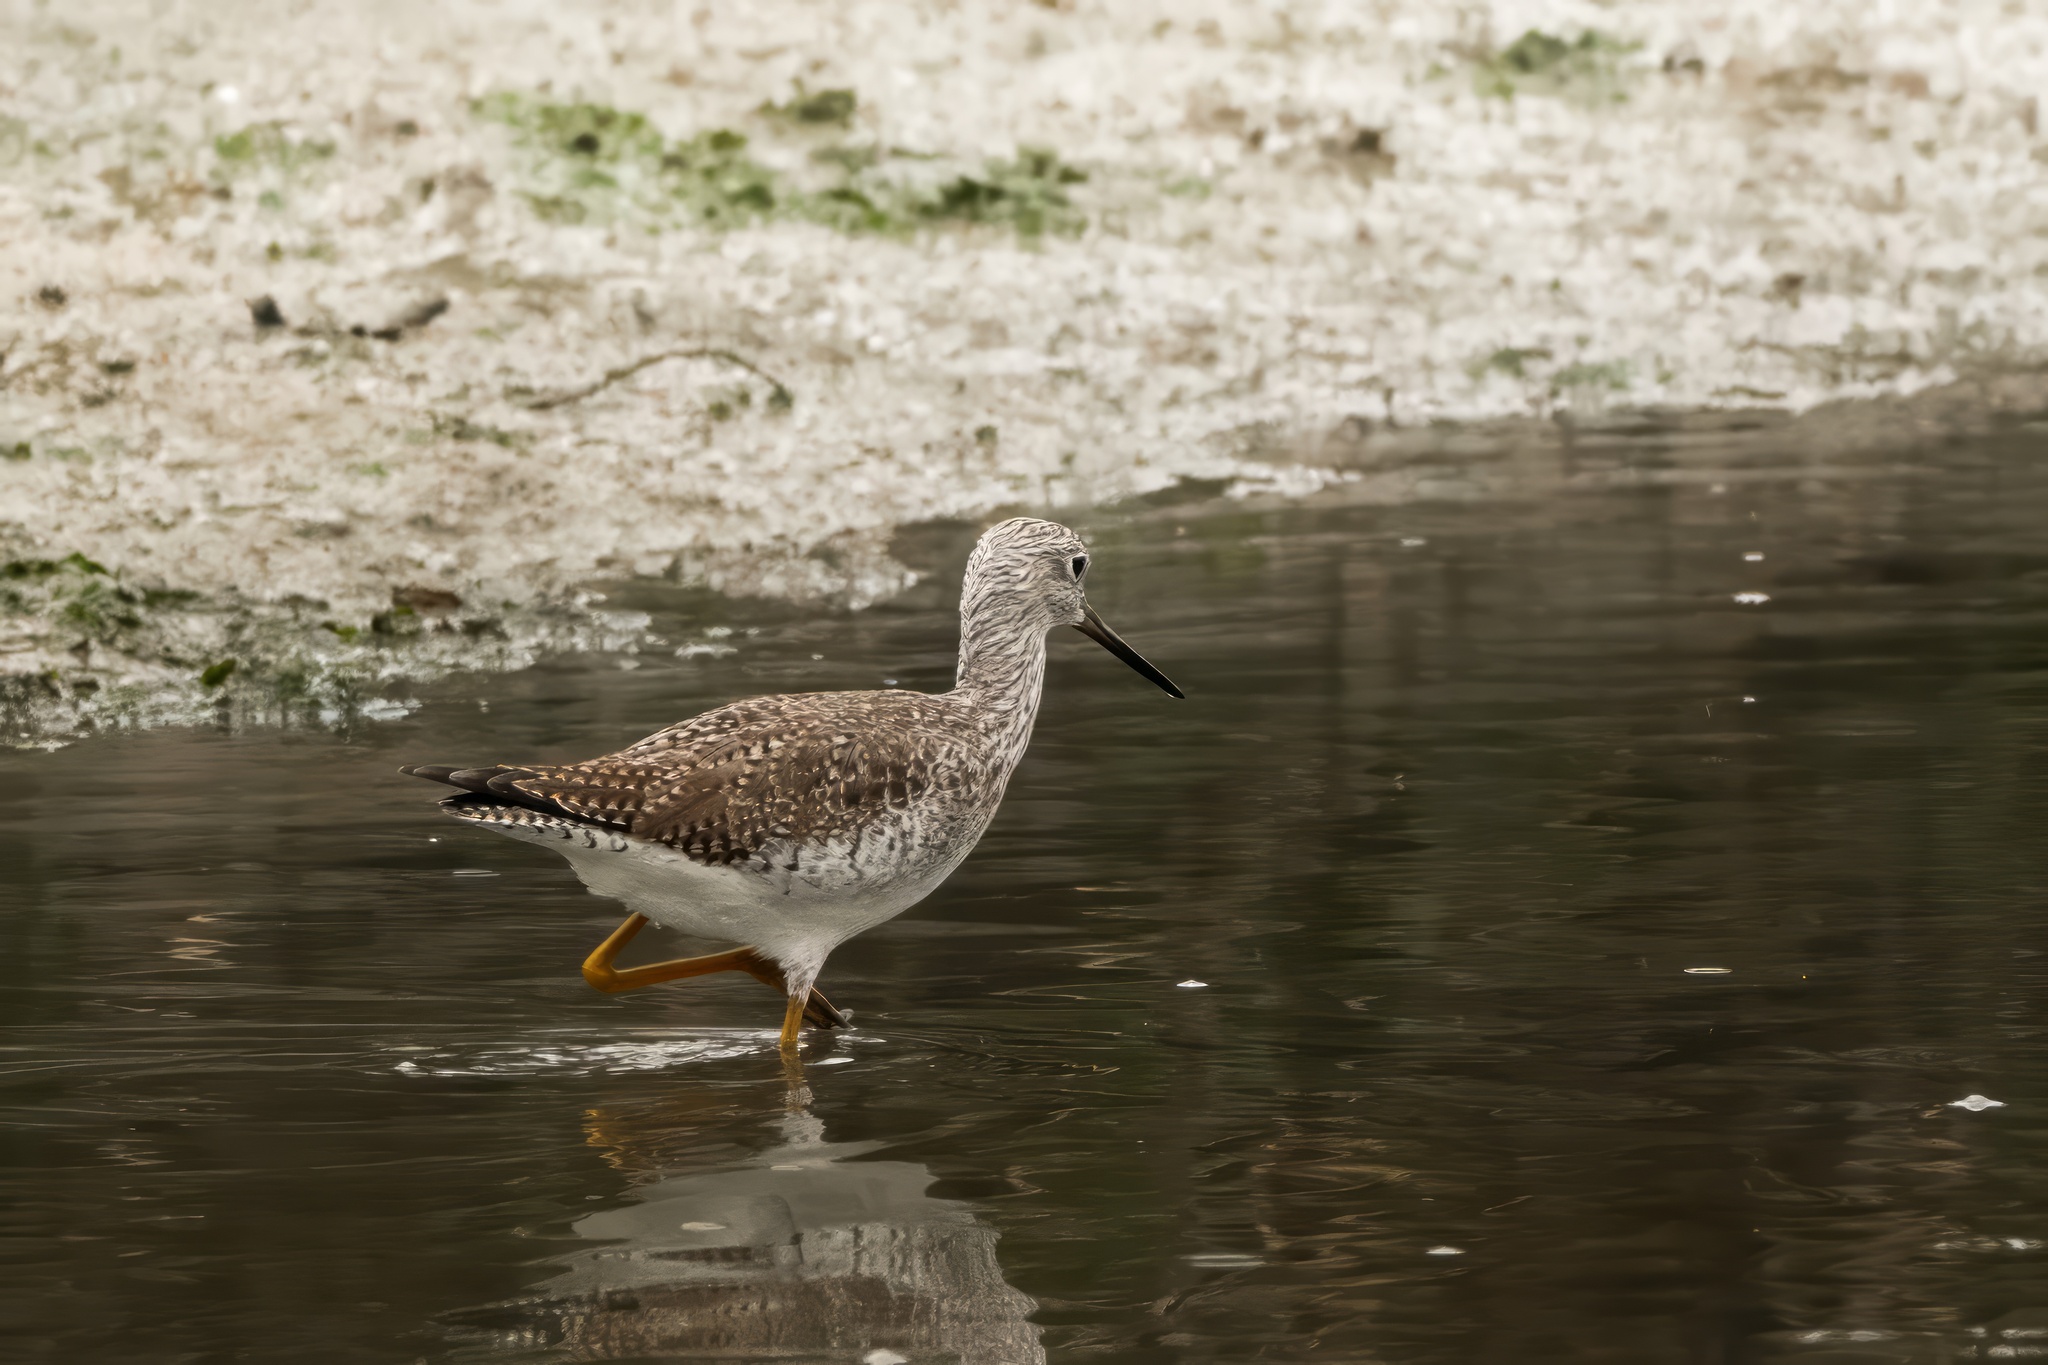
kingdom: Animalia
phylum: Chordata
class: Aves
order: Charadriiformes
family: Scolopacidae
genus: Tringa
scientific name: Tringa melanoleuca
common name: Greater yellowlegs
